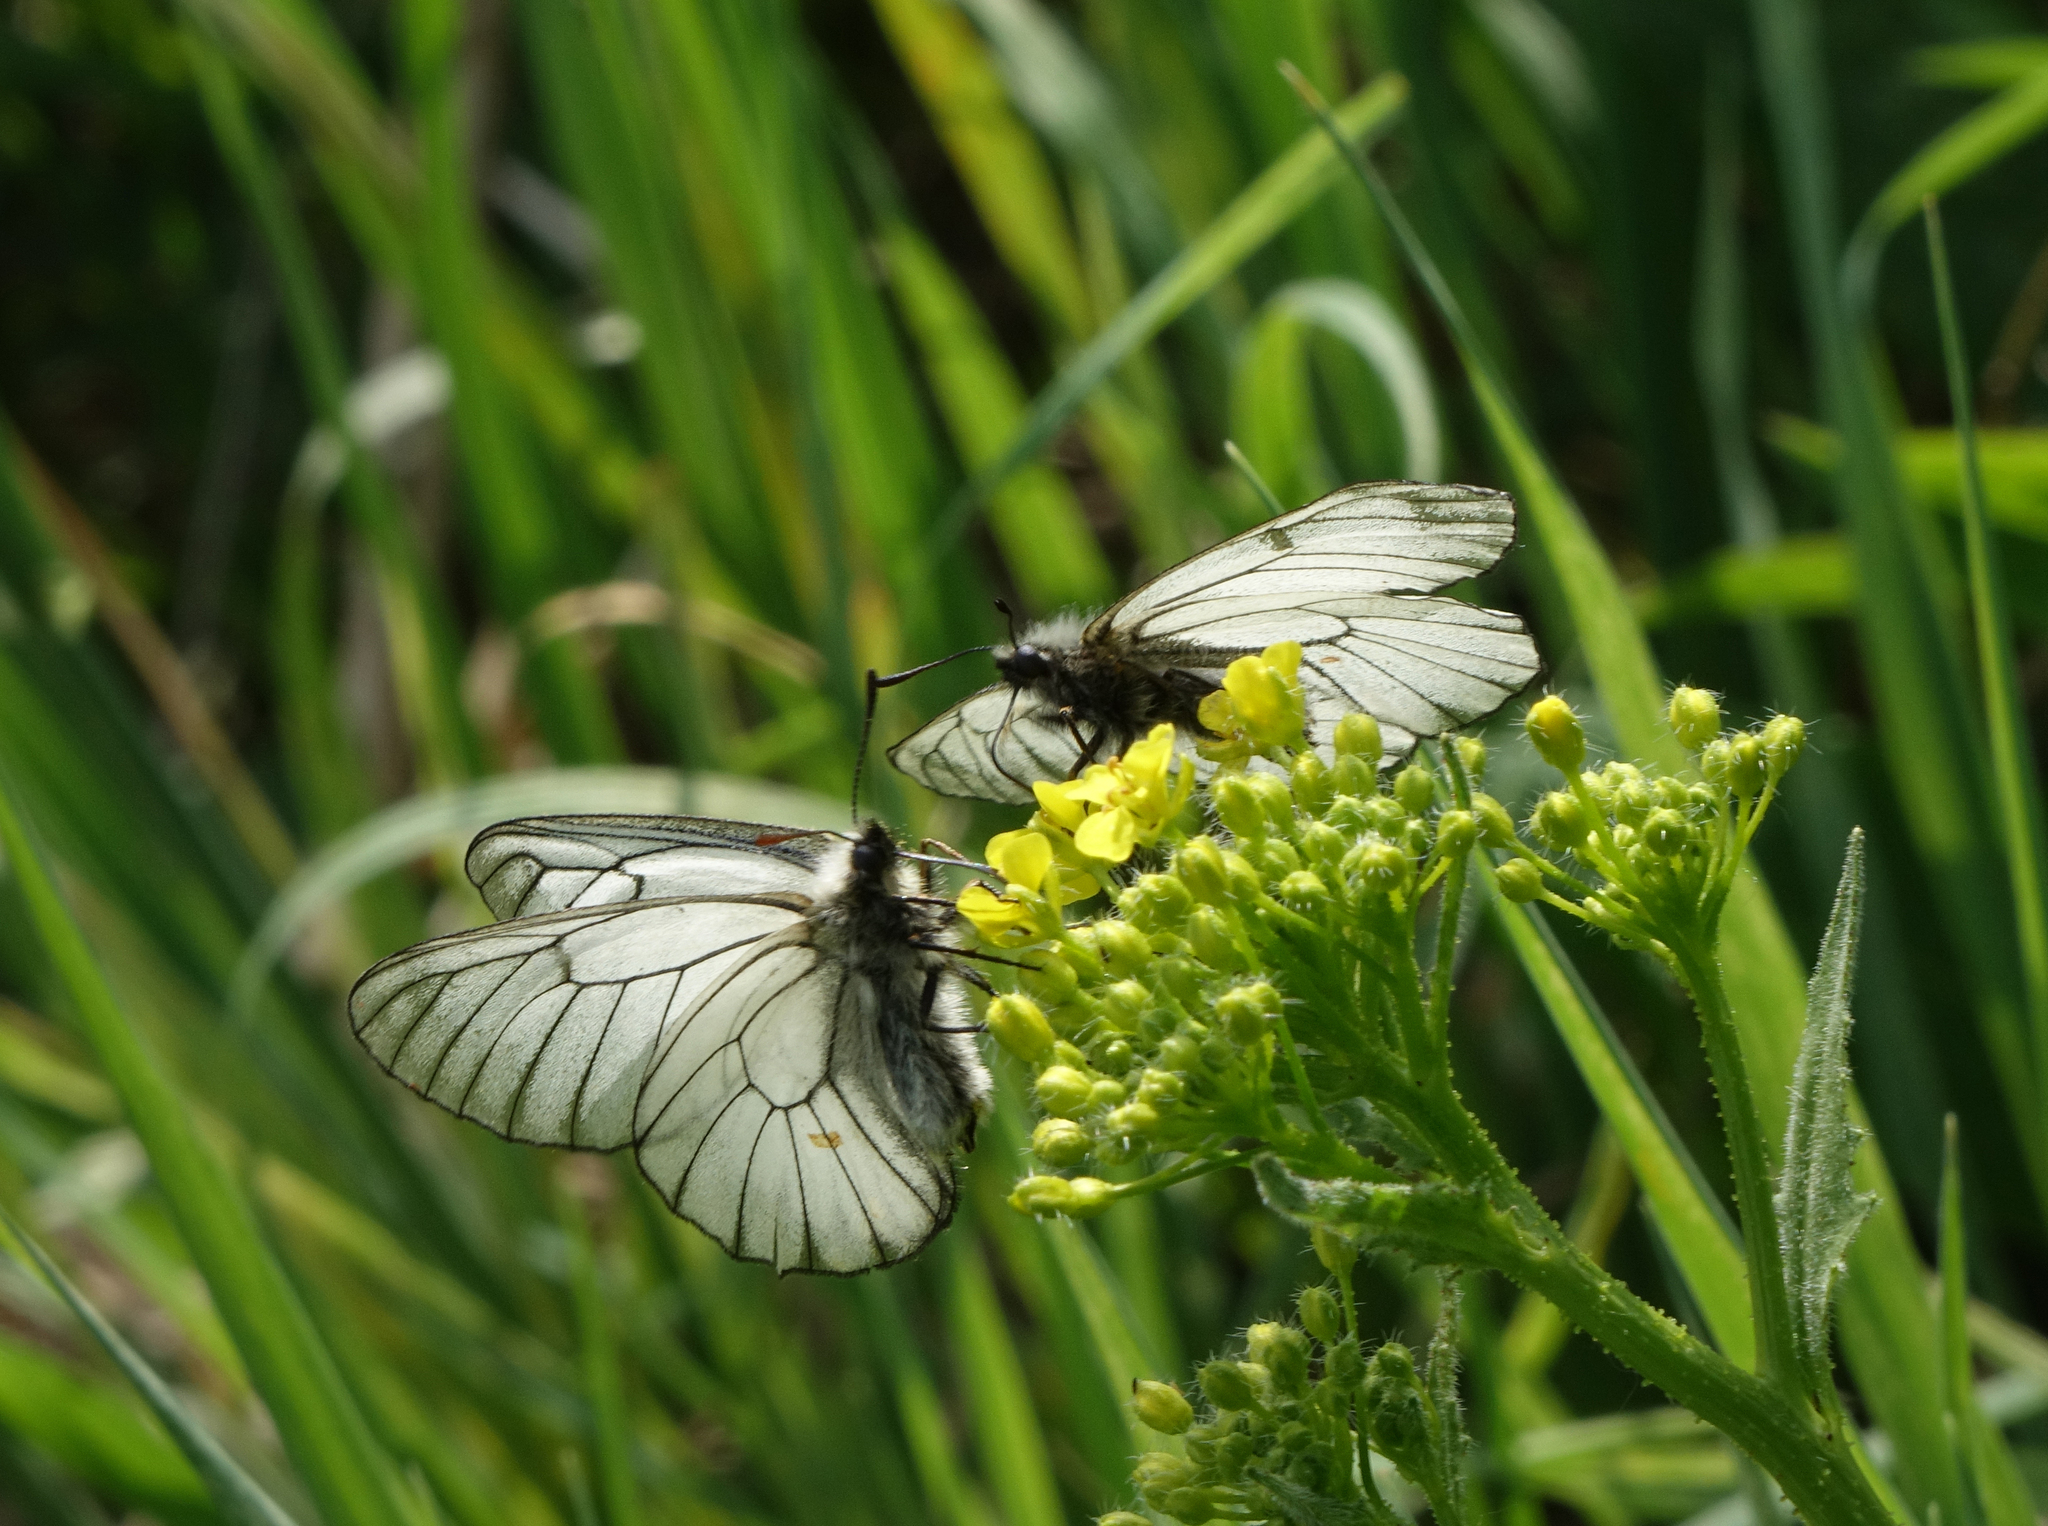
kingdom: Animalia
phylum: Arthropoda
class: Insecta
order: Lepidoptera
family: Papilionidae
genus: Parnassius
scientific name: Parnassius stubbendorfii
